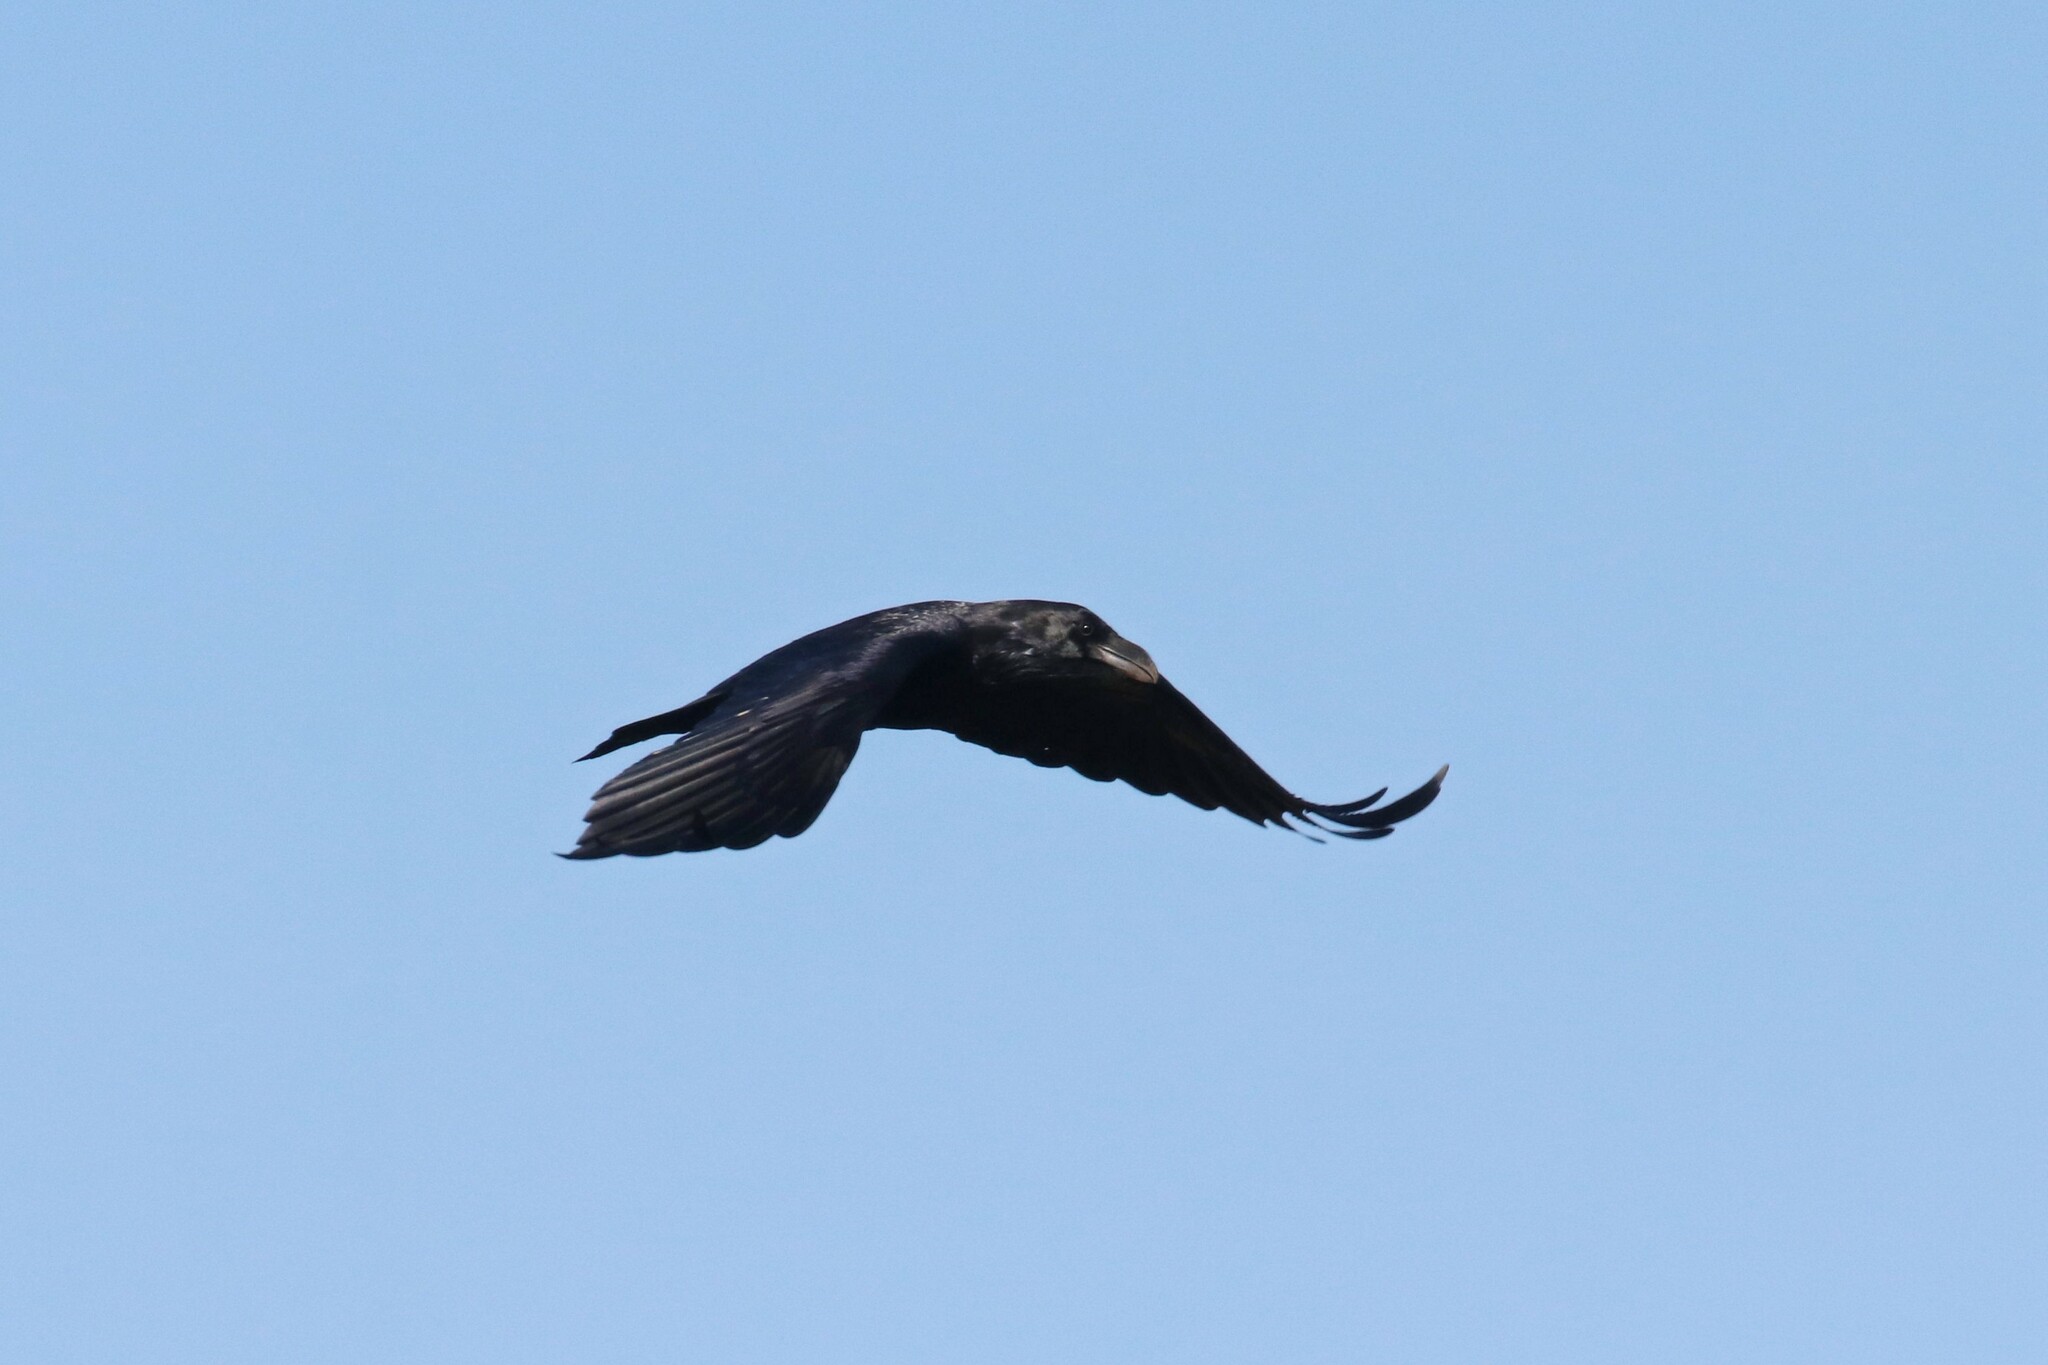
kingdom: Animalia
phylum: Chordata
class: Aves
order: Passeriformes
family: Corvidae
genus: Corvus
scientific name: Corvus corax
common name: Common raven
